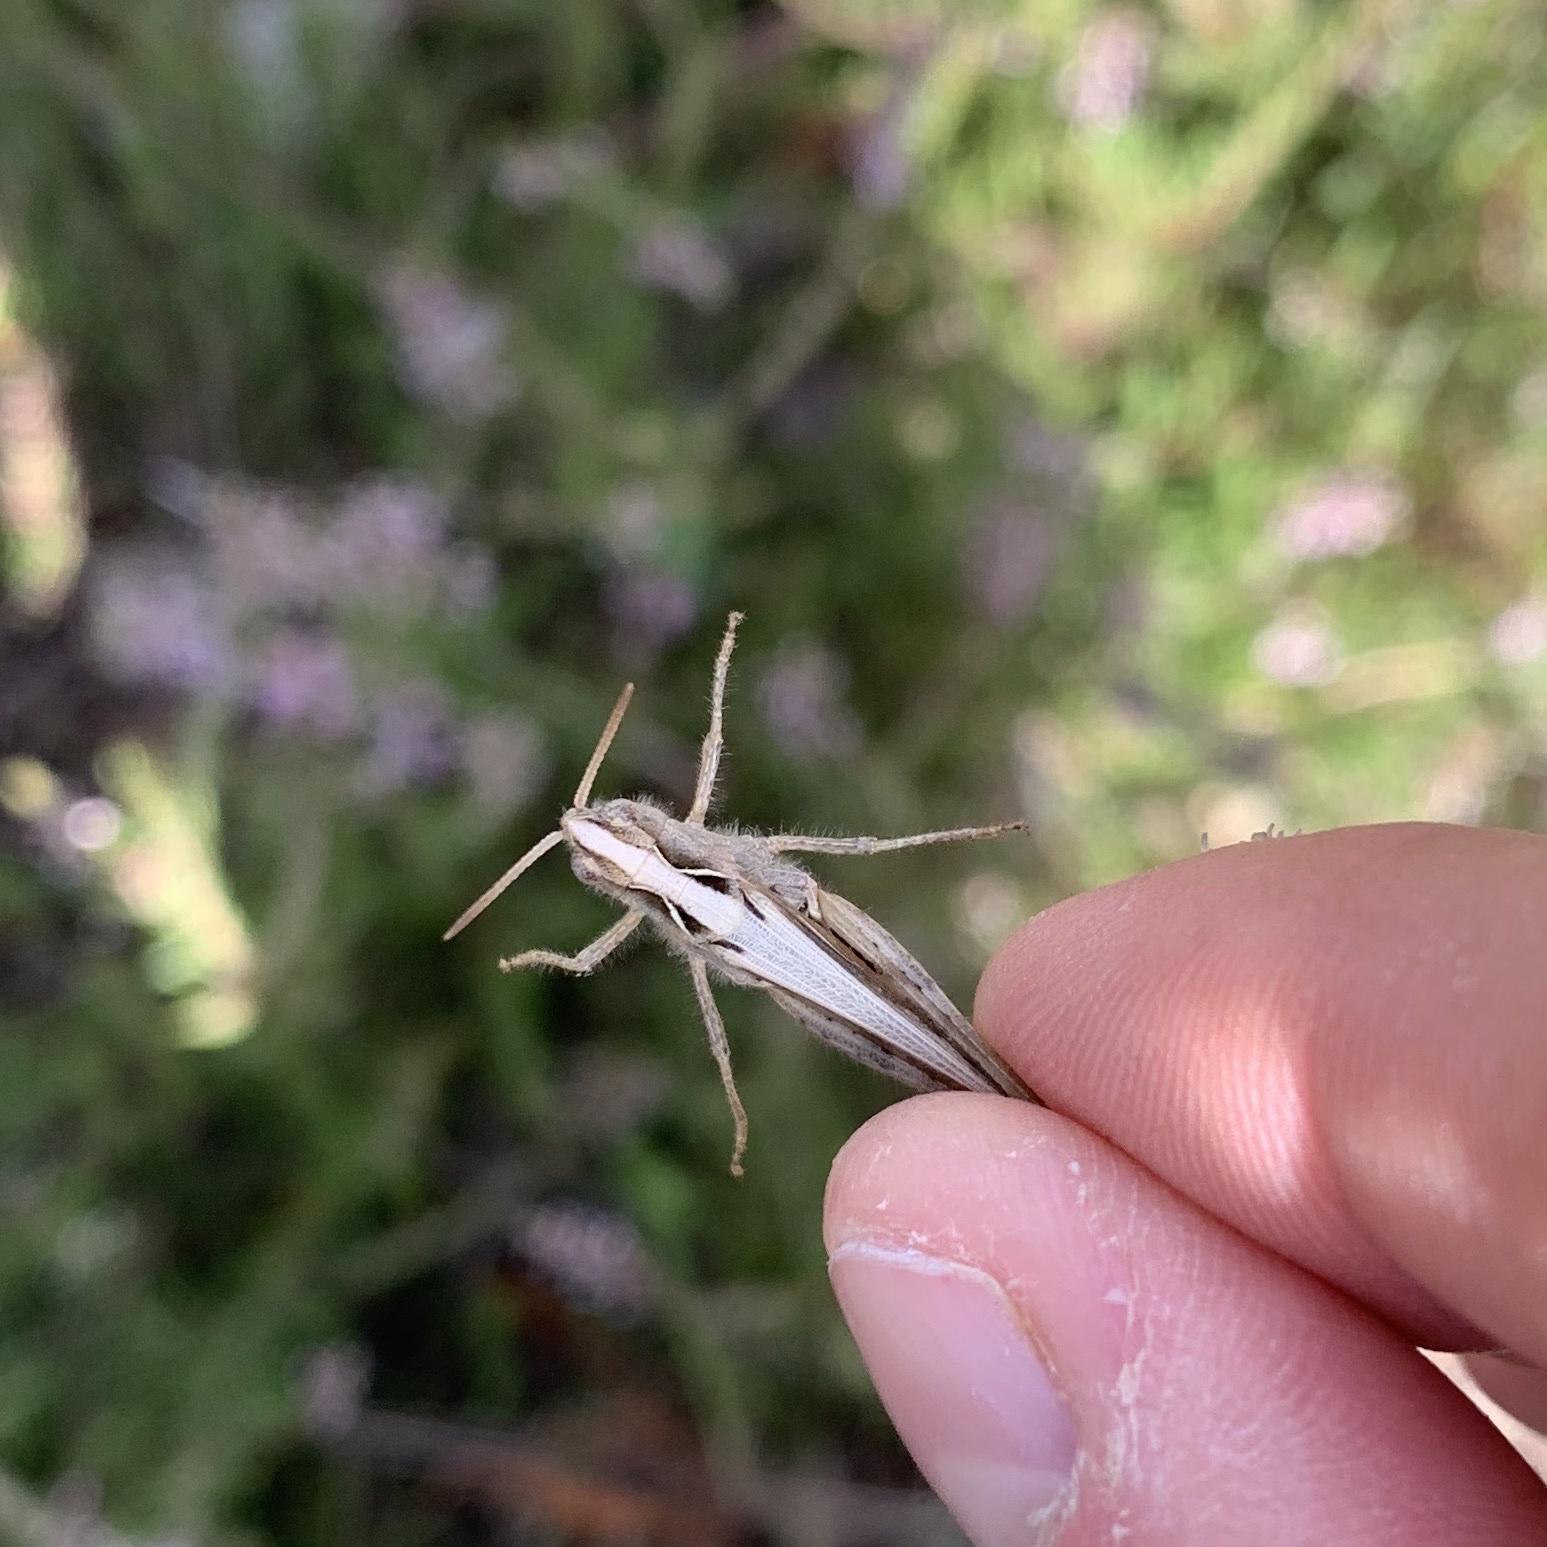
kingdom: Animalia
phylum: Arthropoda
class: Insecta
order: Orthoptera
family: Acrididae
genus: Chorthippus
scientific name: Chorthippus brunneus
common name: Field grasshopper
